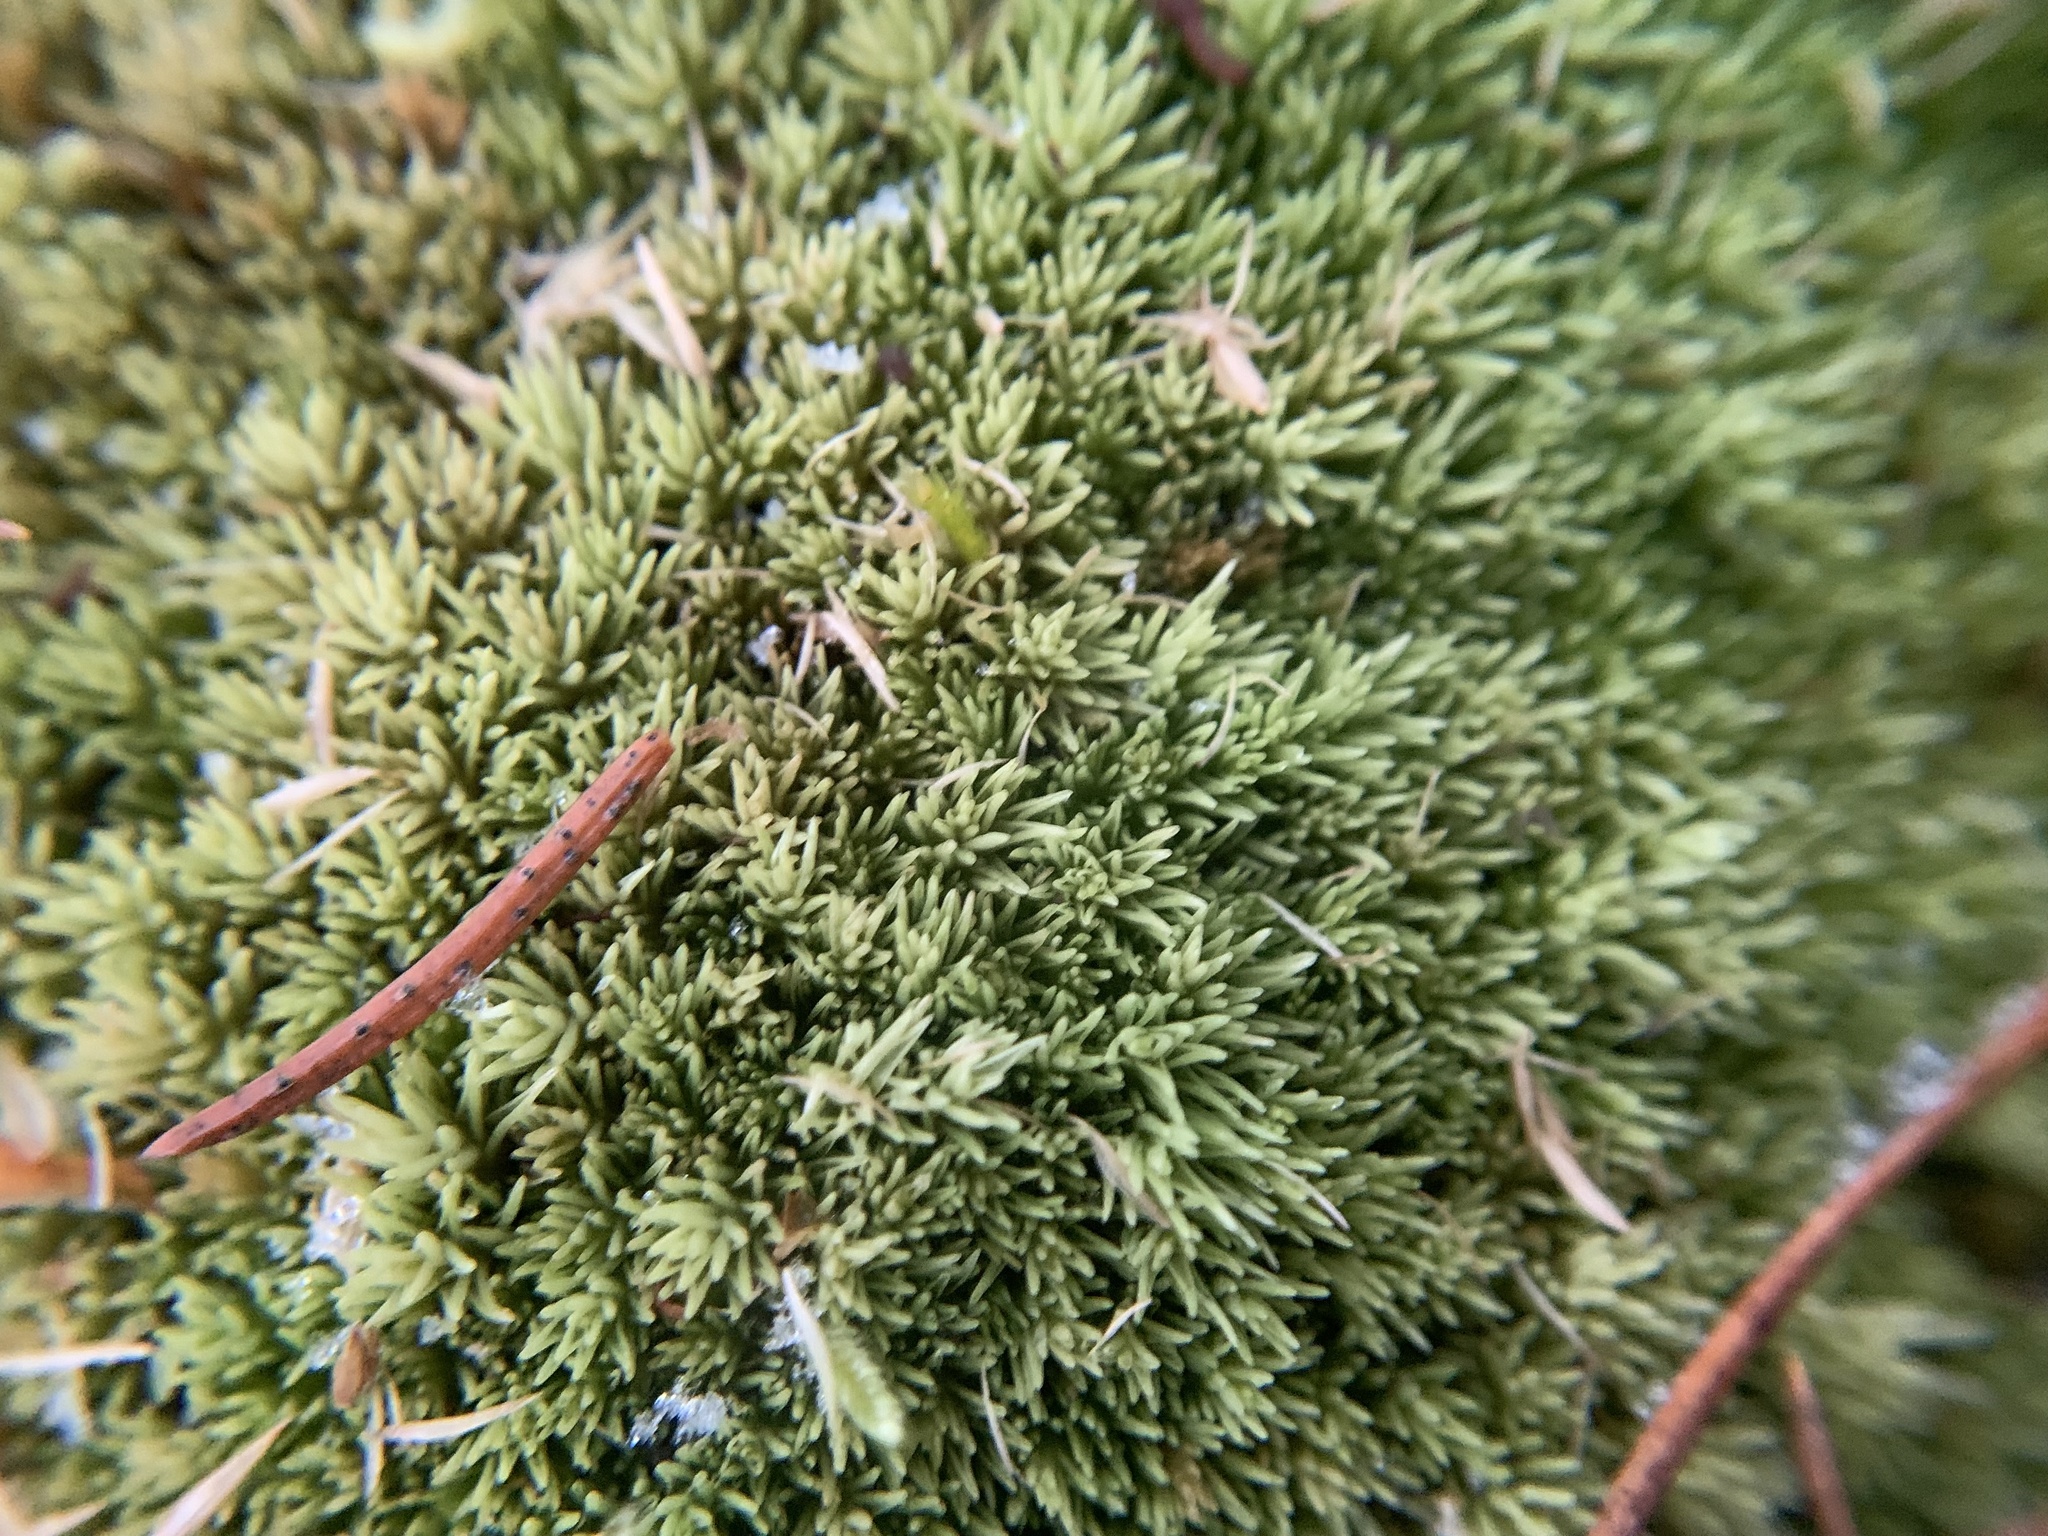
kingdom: Plantae
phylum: Bryophyta
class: Bryopsida
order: Dicranales
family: Leucobryaceae
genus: Leucobryum
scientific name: Leucobryum glaucum
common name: Large white-moss
